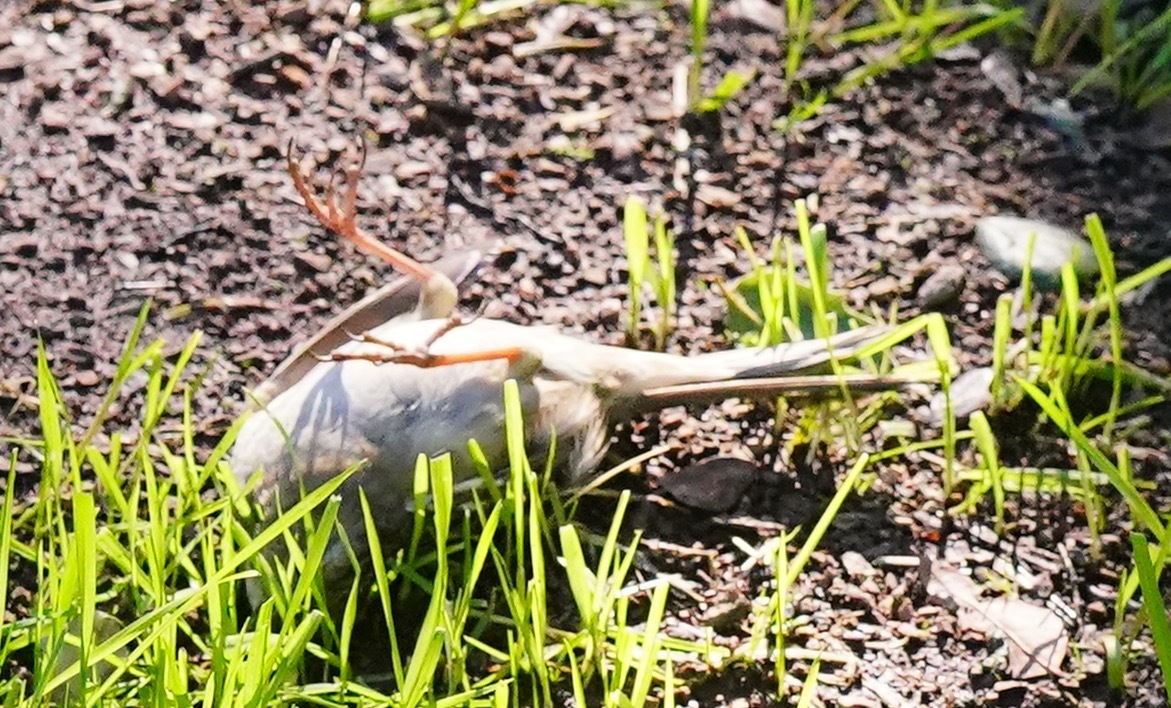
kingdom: Animalia
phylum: Chordata
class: Aves
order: Passeriformes
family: Passerellidae
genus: Zonotrichia
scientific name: Zonotrichia atricapilla
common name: Golden-crowned sparrow
